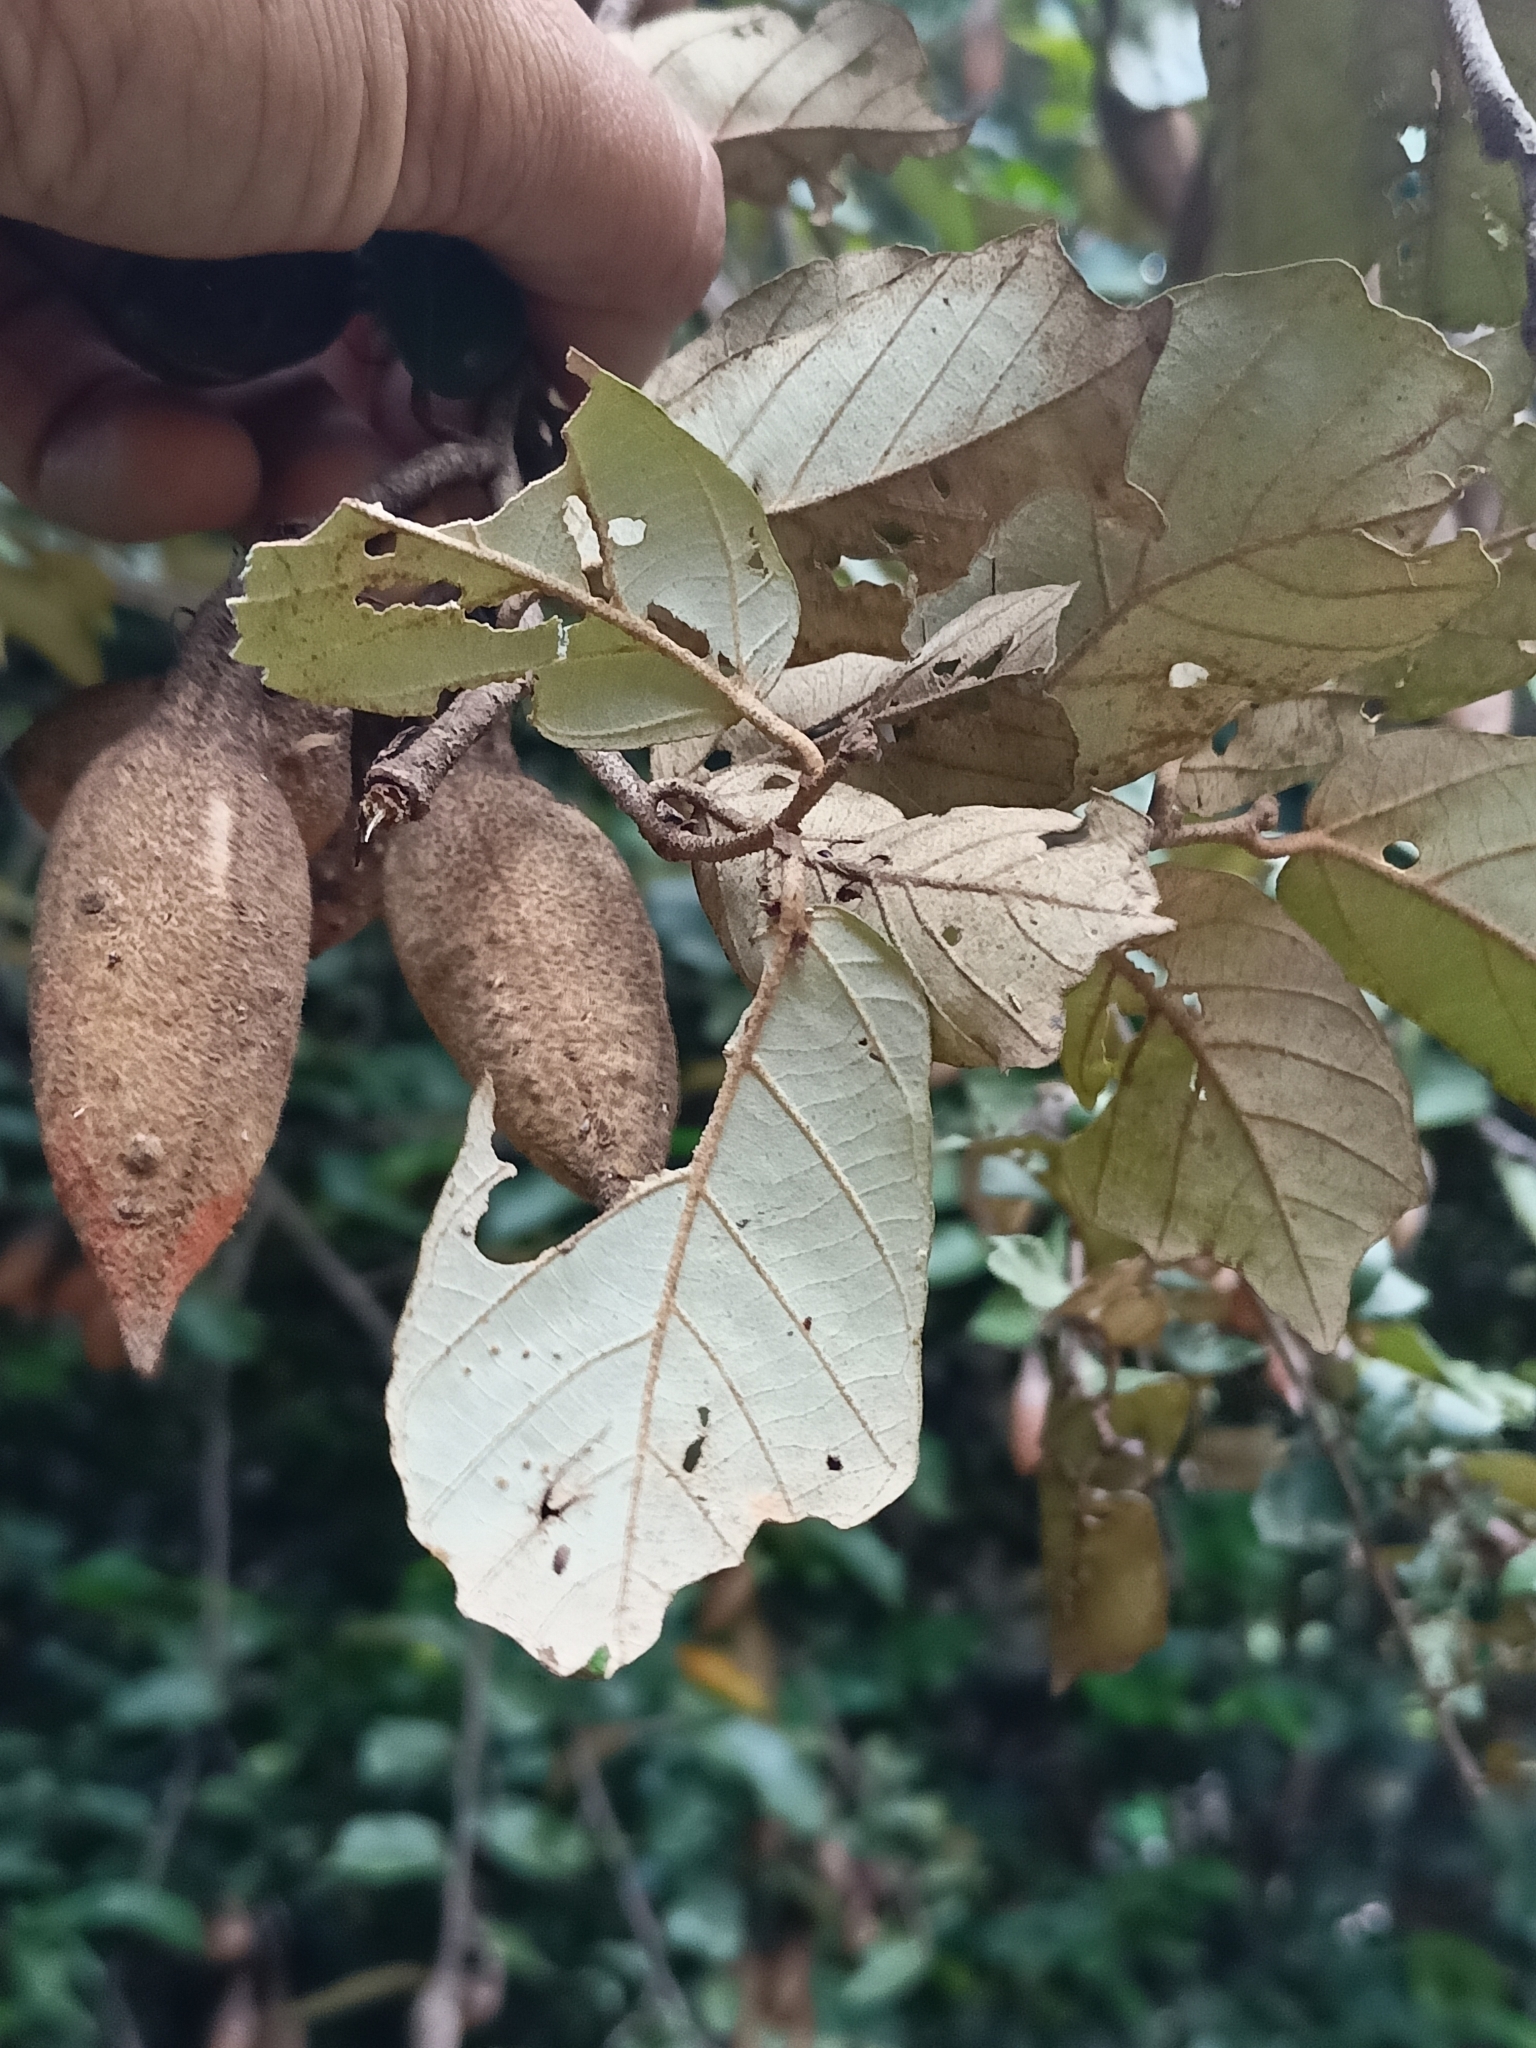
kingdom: Plantae
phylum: Tracheophyta
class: Magnoliopsida
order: Malvales
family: Malvaceae
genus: Pterospermum
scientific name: Pterospermum suberifolium
